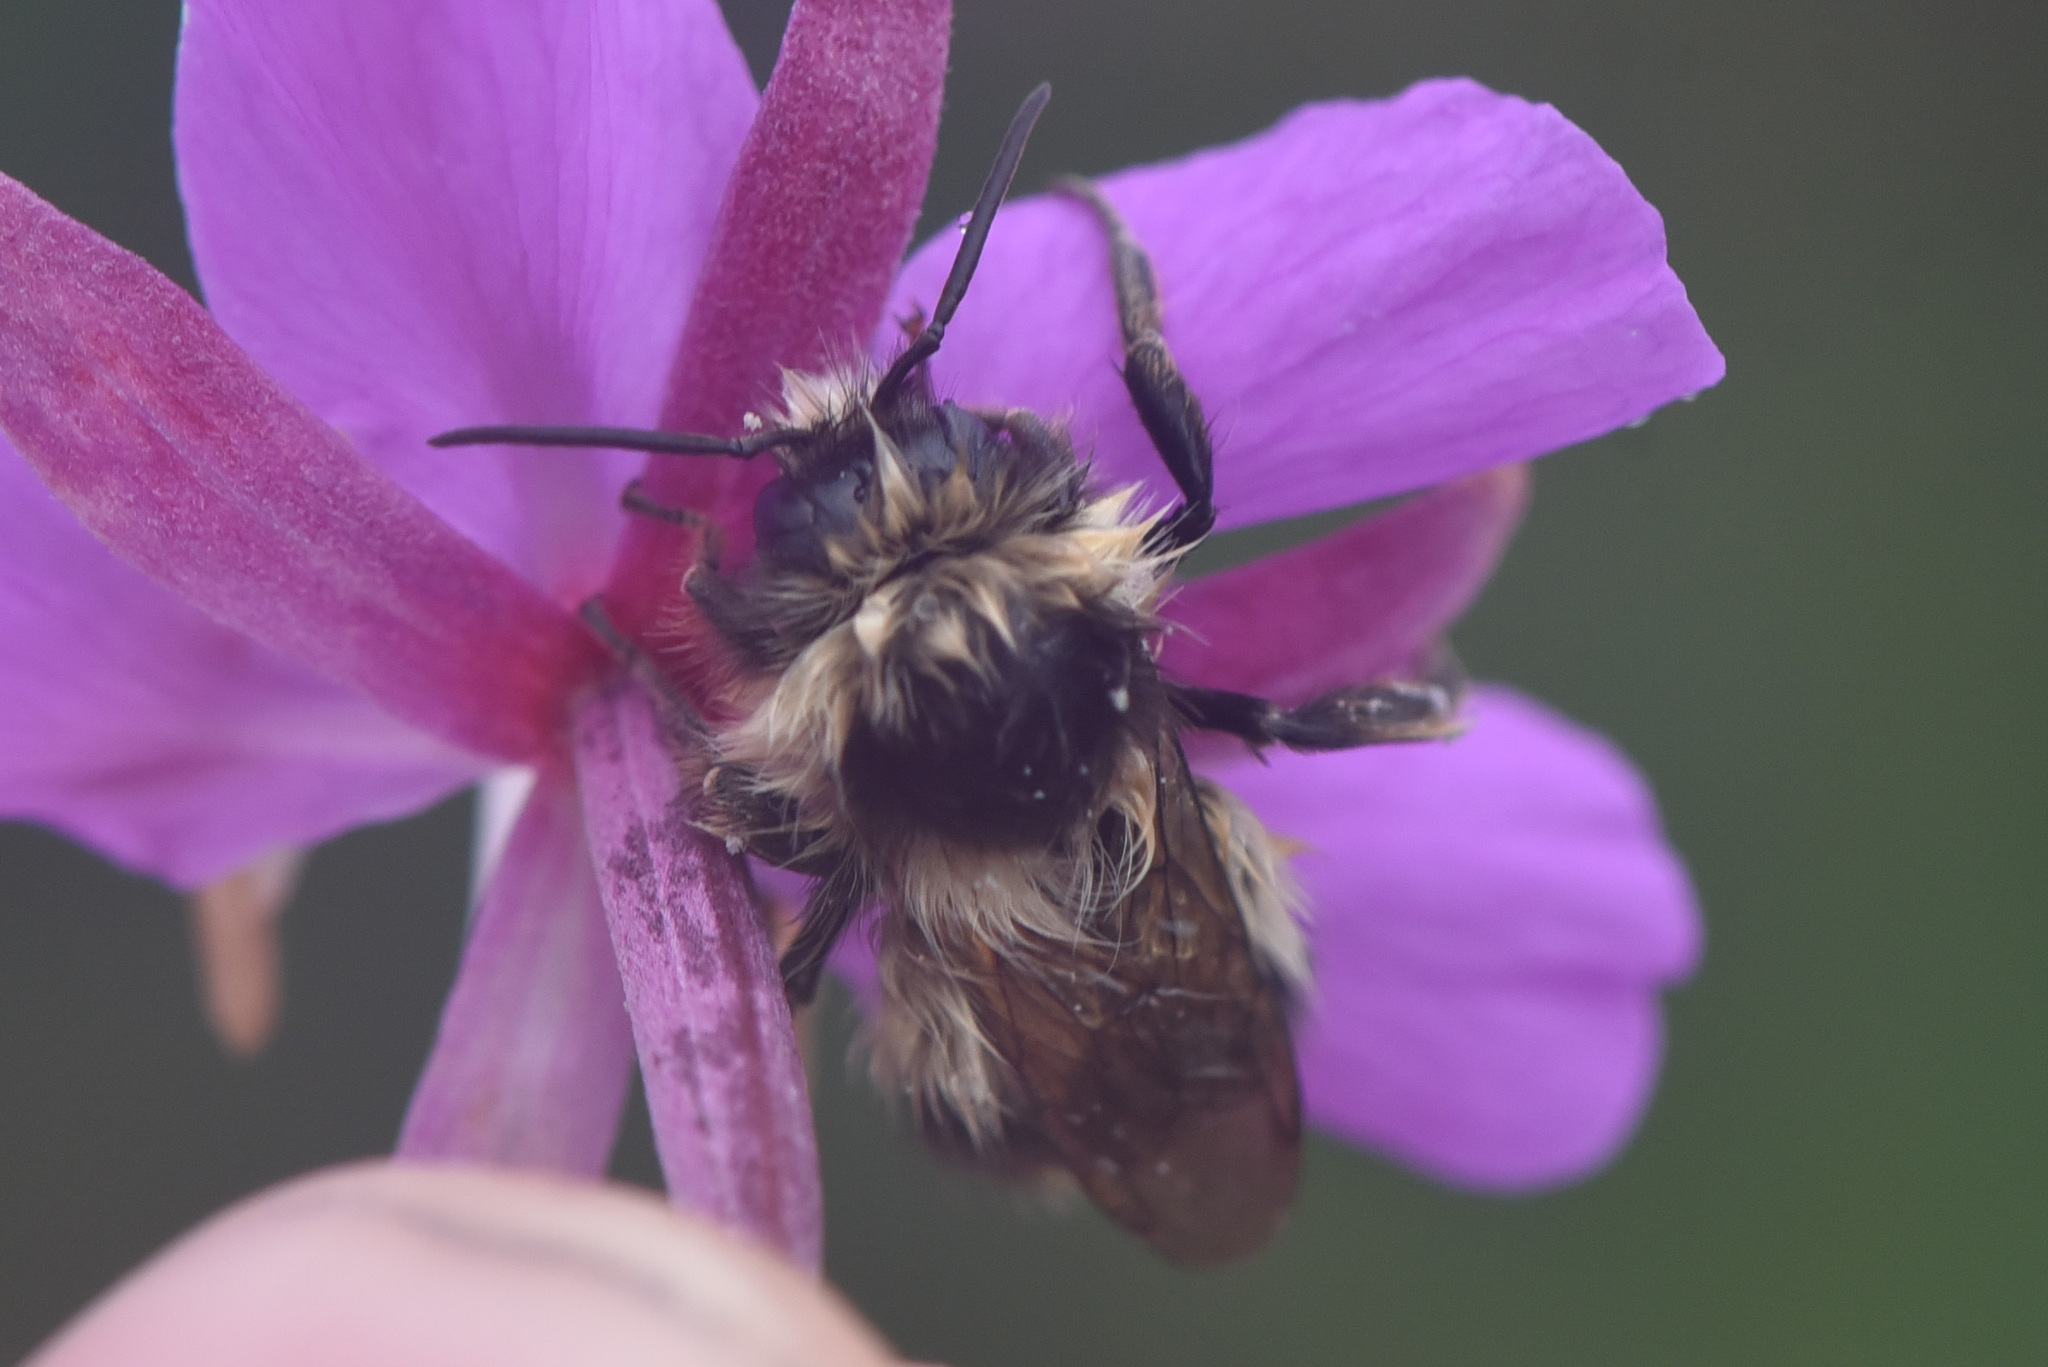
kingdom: Animalia
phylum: Arthropoda
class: Insecta
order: Hymenoptera
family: Apidae
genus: Bombus
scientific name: Bombus frigidus
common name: Frigid bumble bee
